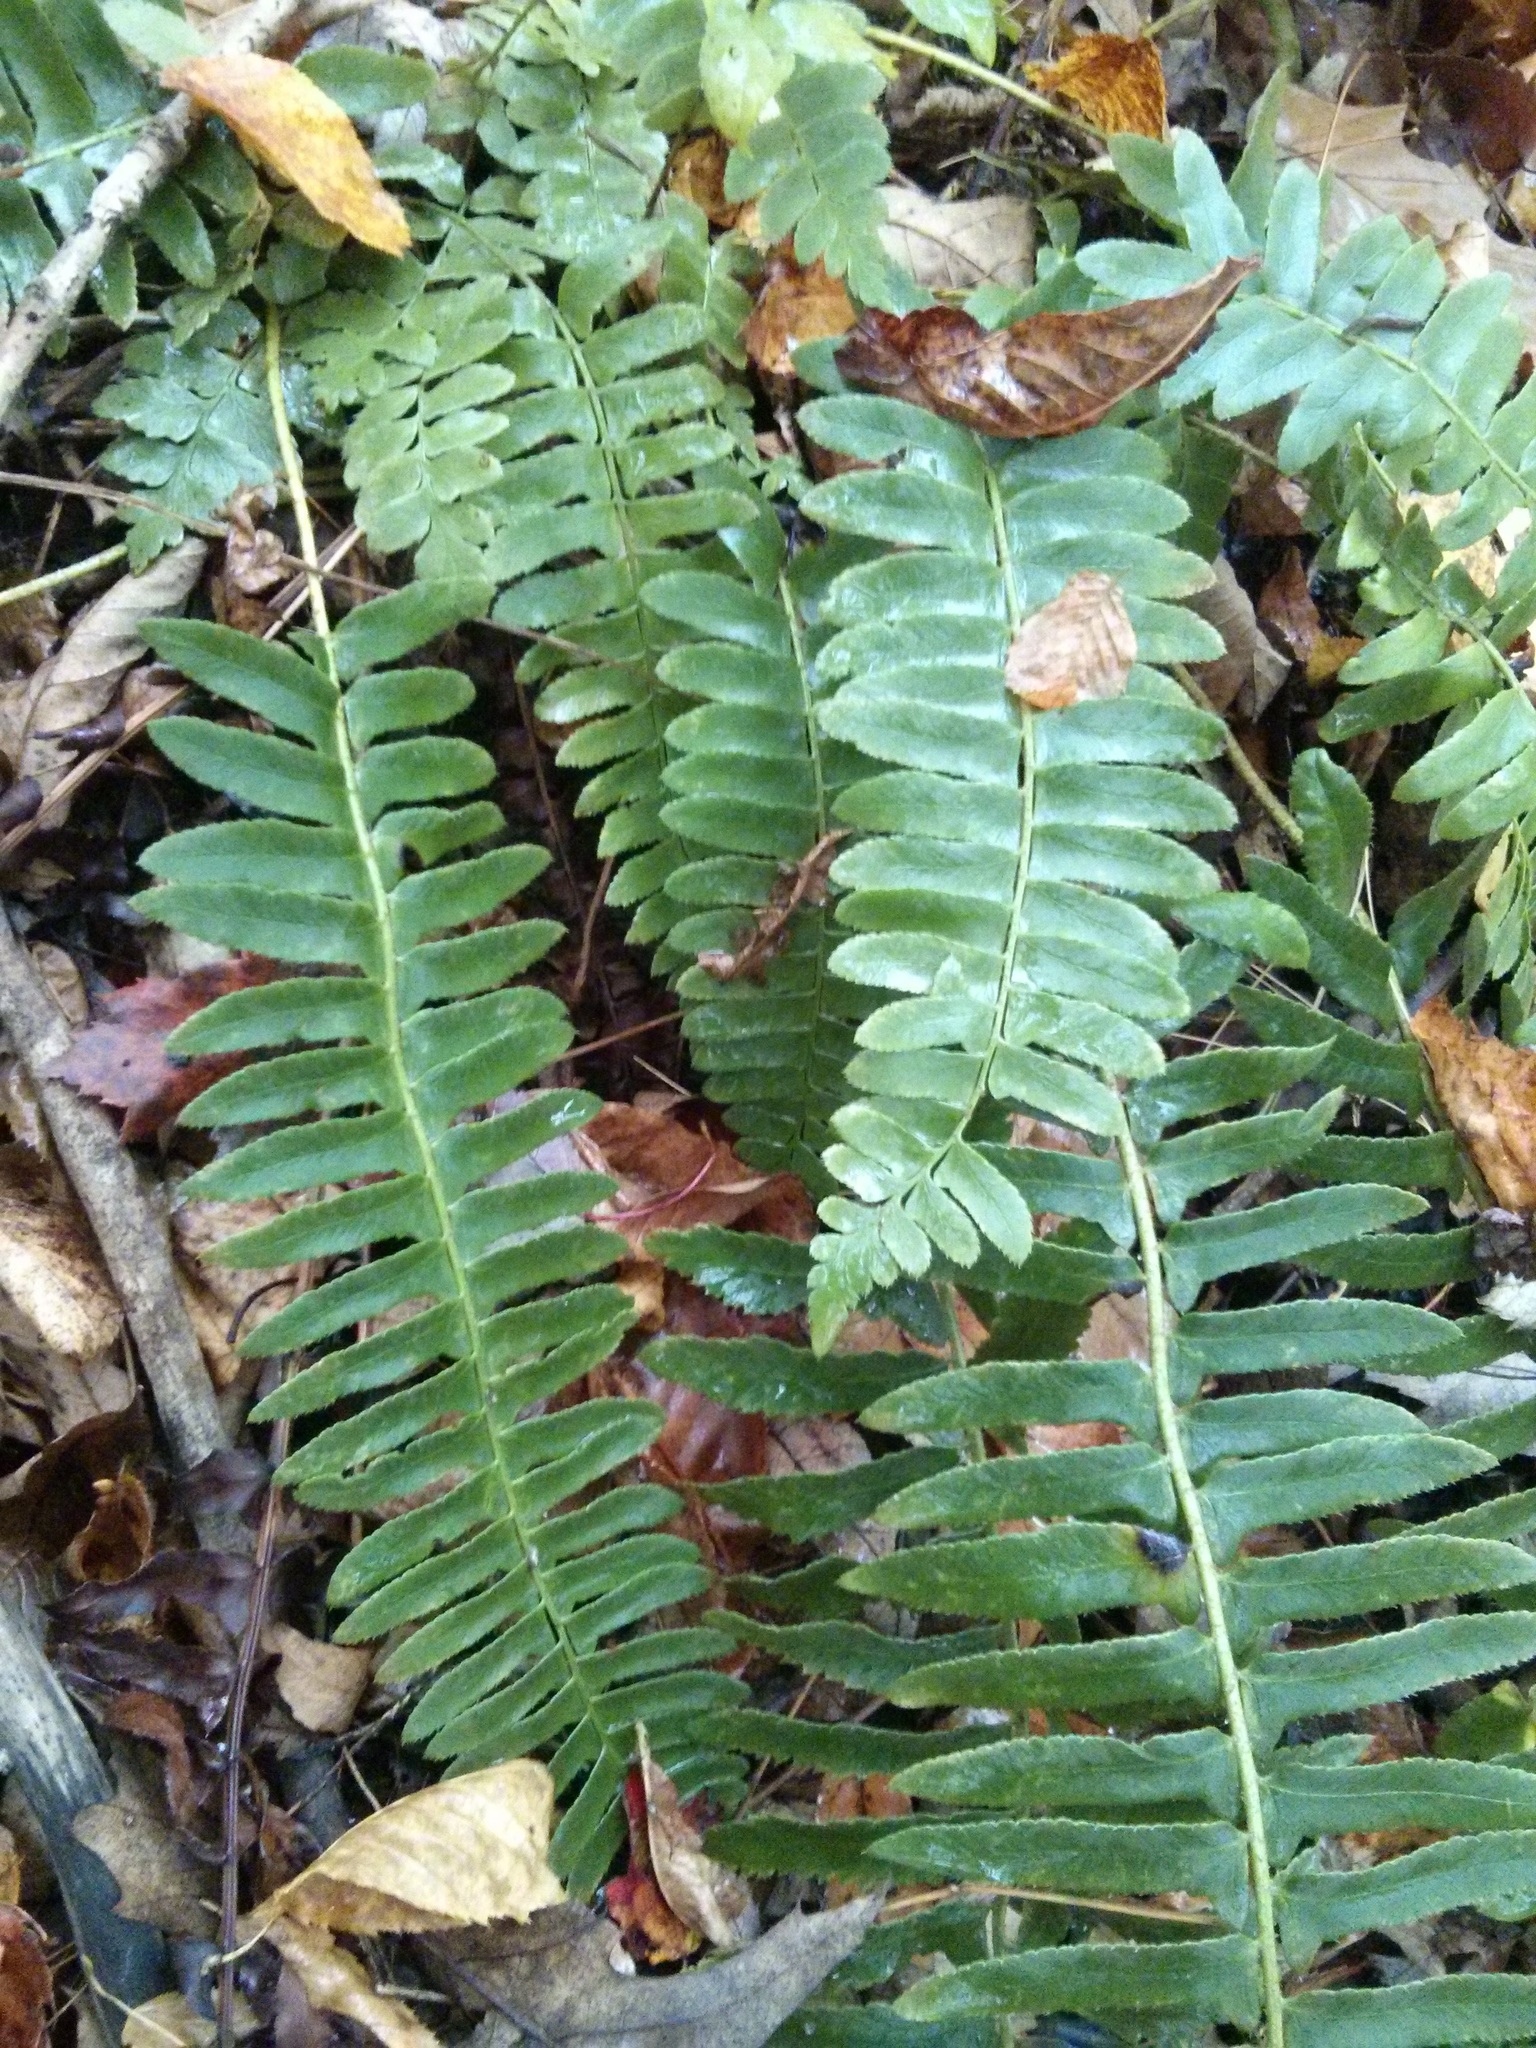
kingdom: Plantae
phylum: Tracheophyta
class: Polypodiopsida
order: Polypodiales
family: Dryopteridaceae
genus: Polystichum
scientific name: Polystichum acrostichoides
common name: Christmas fern
